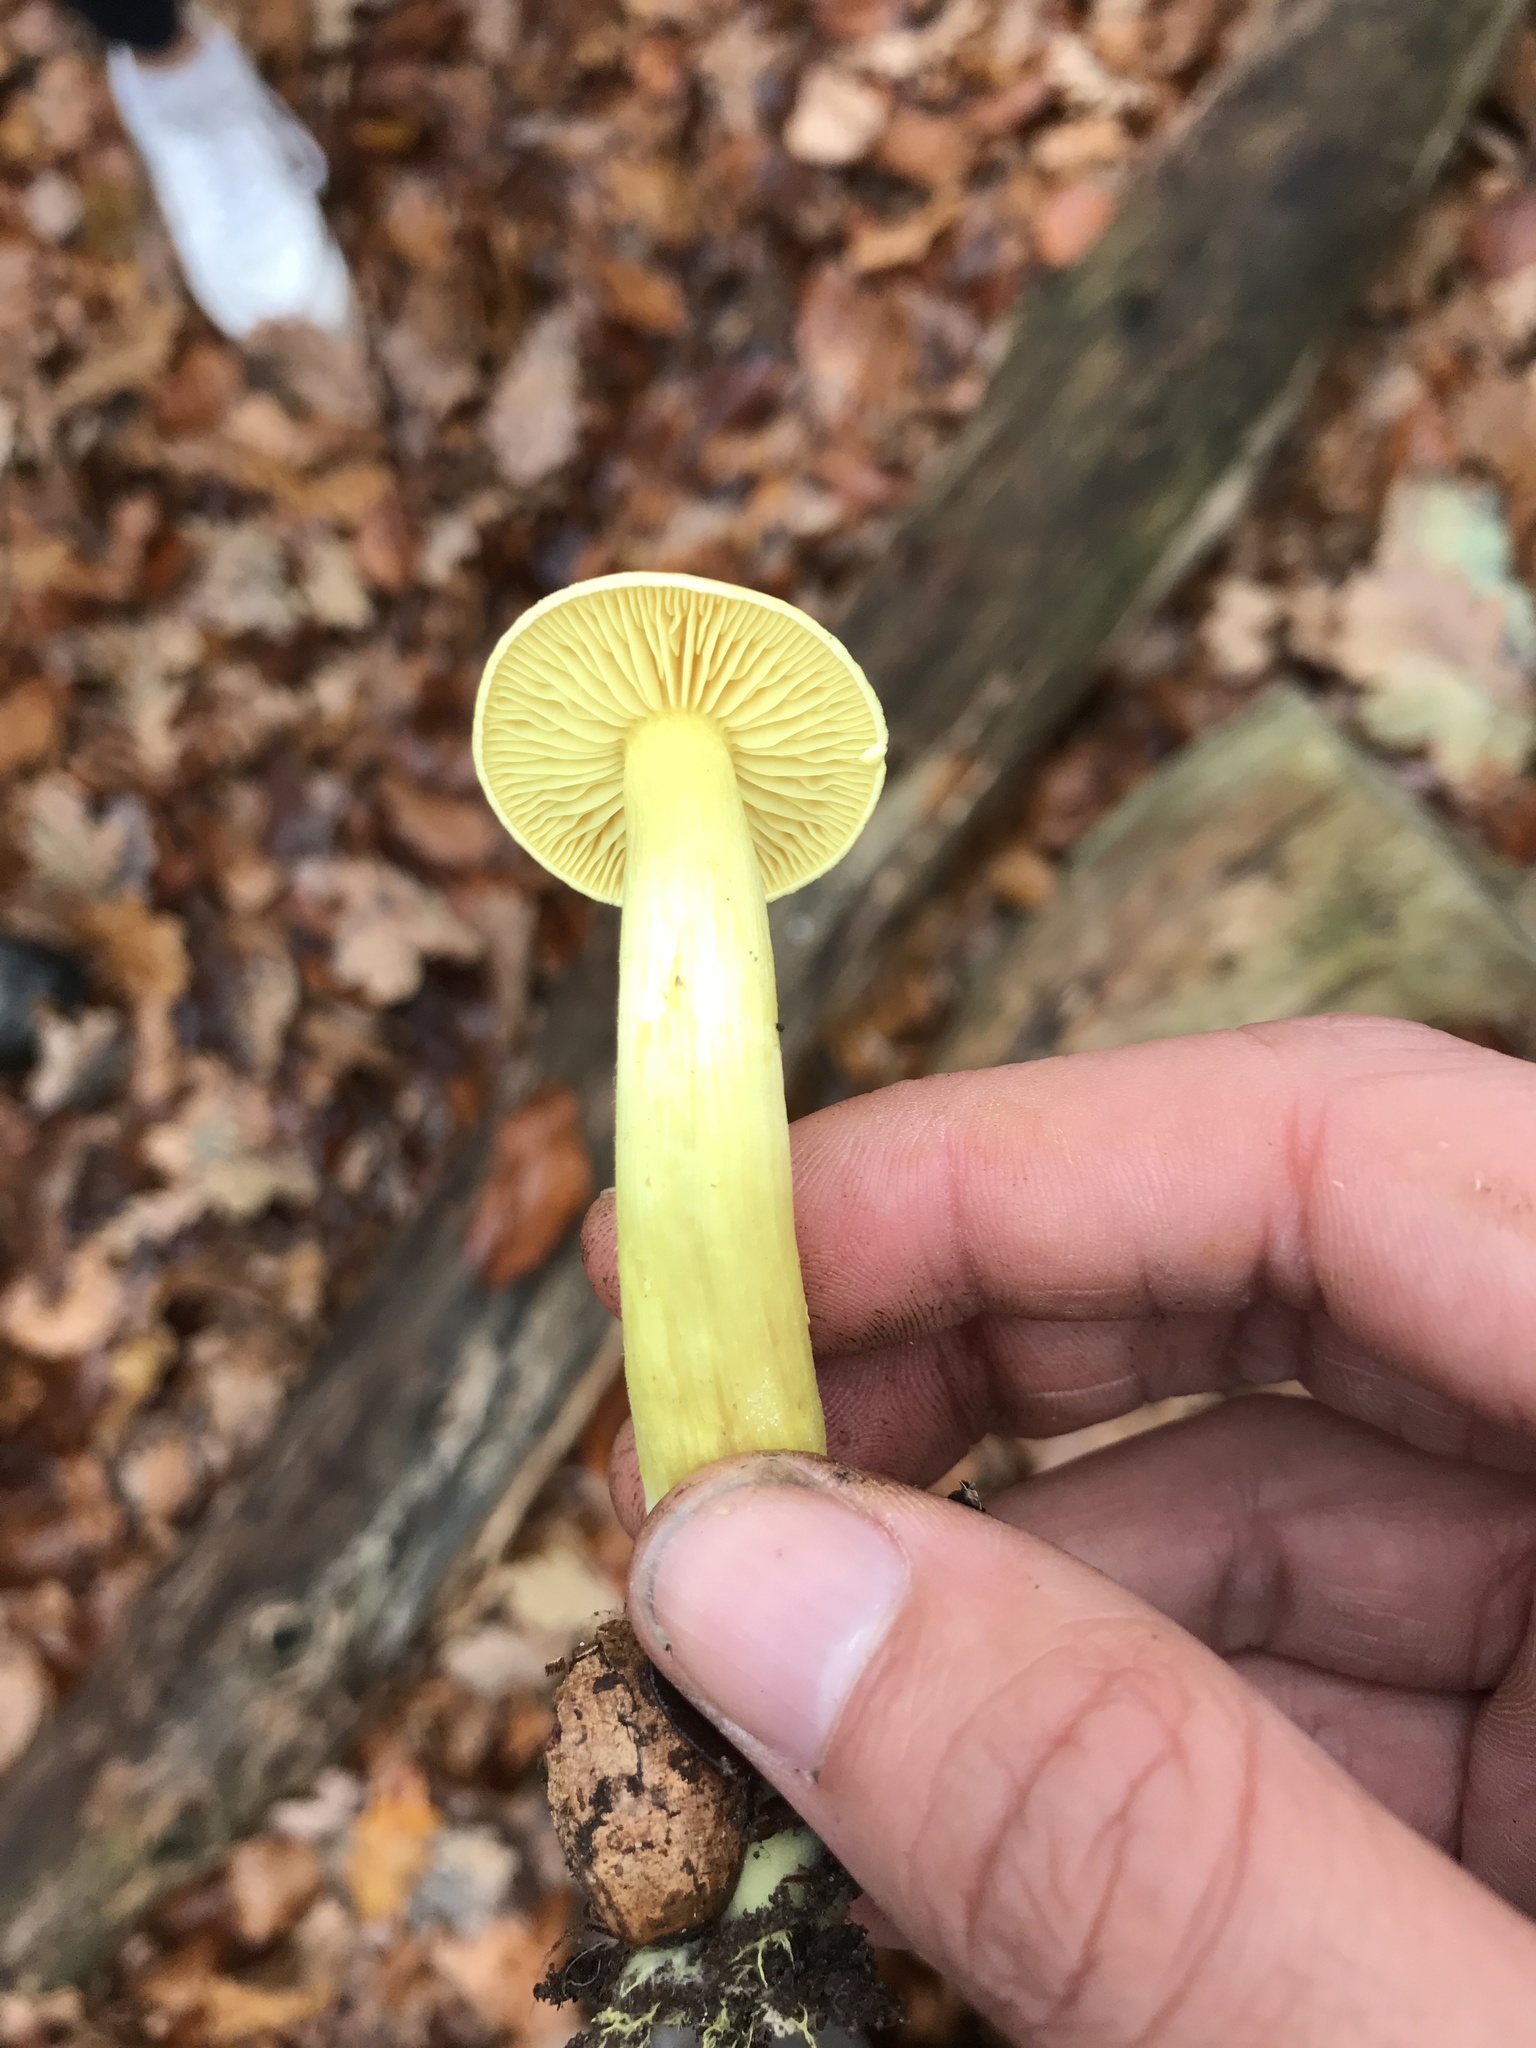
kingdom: Fungi
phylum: Basidiomycota
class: Agaricomycetes
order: Agaricales
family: Tricholomataceae
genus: Tricholoma
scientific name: Tricholoma sulphureum
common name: Stinky knight
